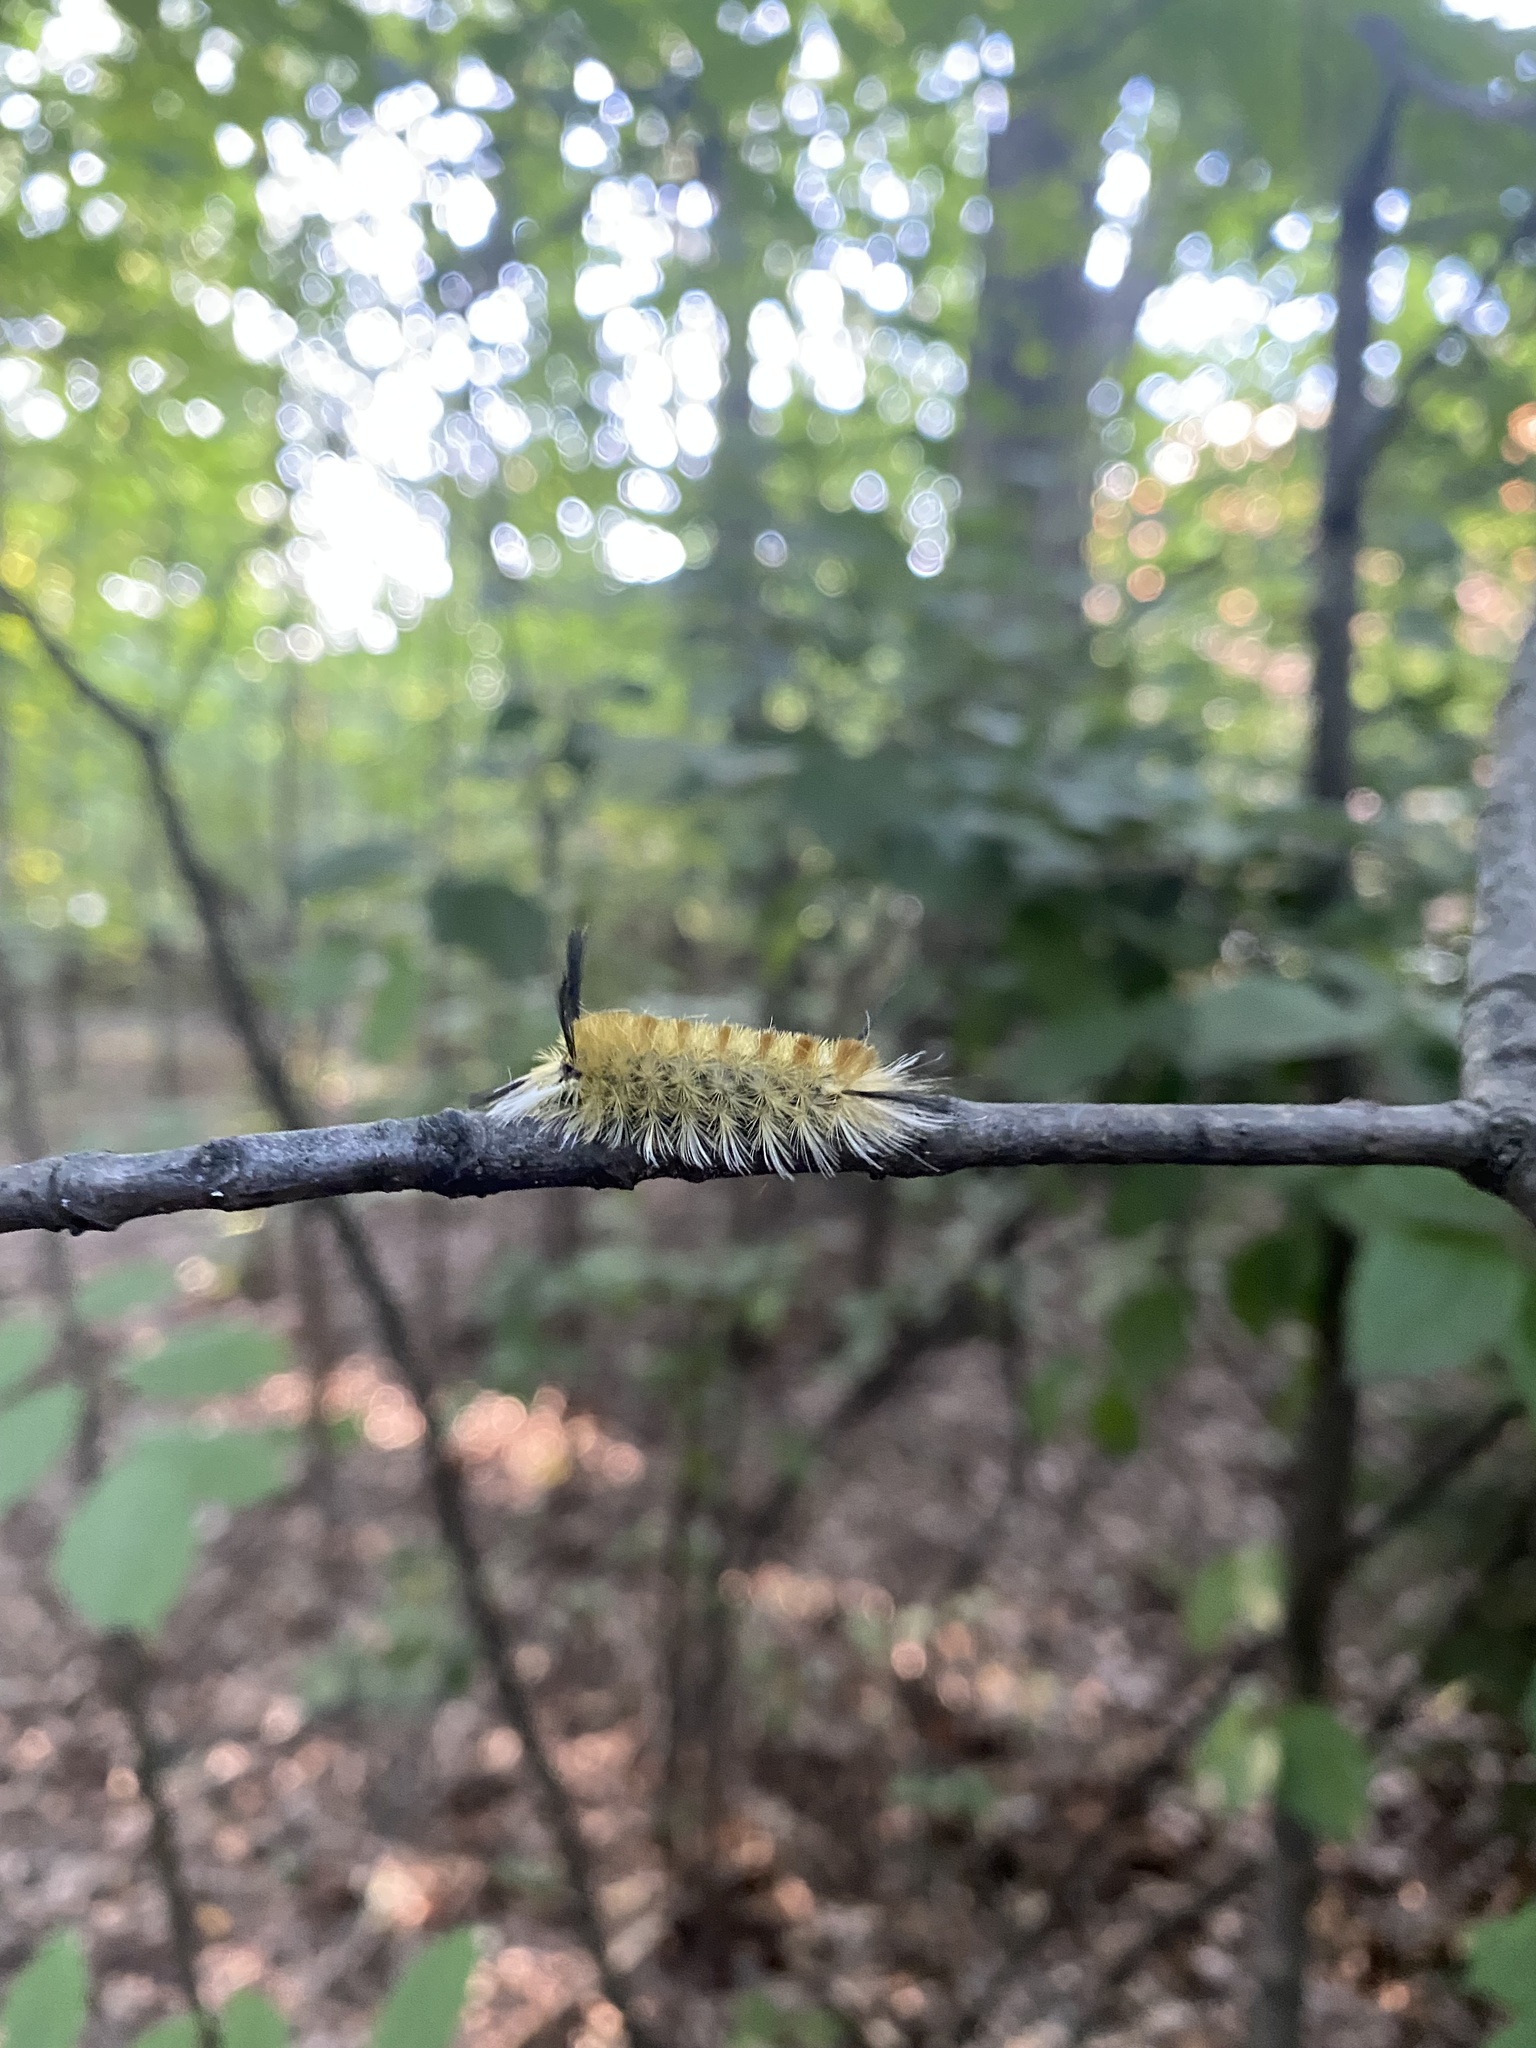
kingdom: Animalia
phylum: Arthropoda
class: Insecta
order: Lepidoptera
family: Erebidae
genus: Halysidota
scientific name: Halysidota tessellaris
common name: Banded tussock moth
